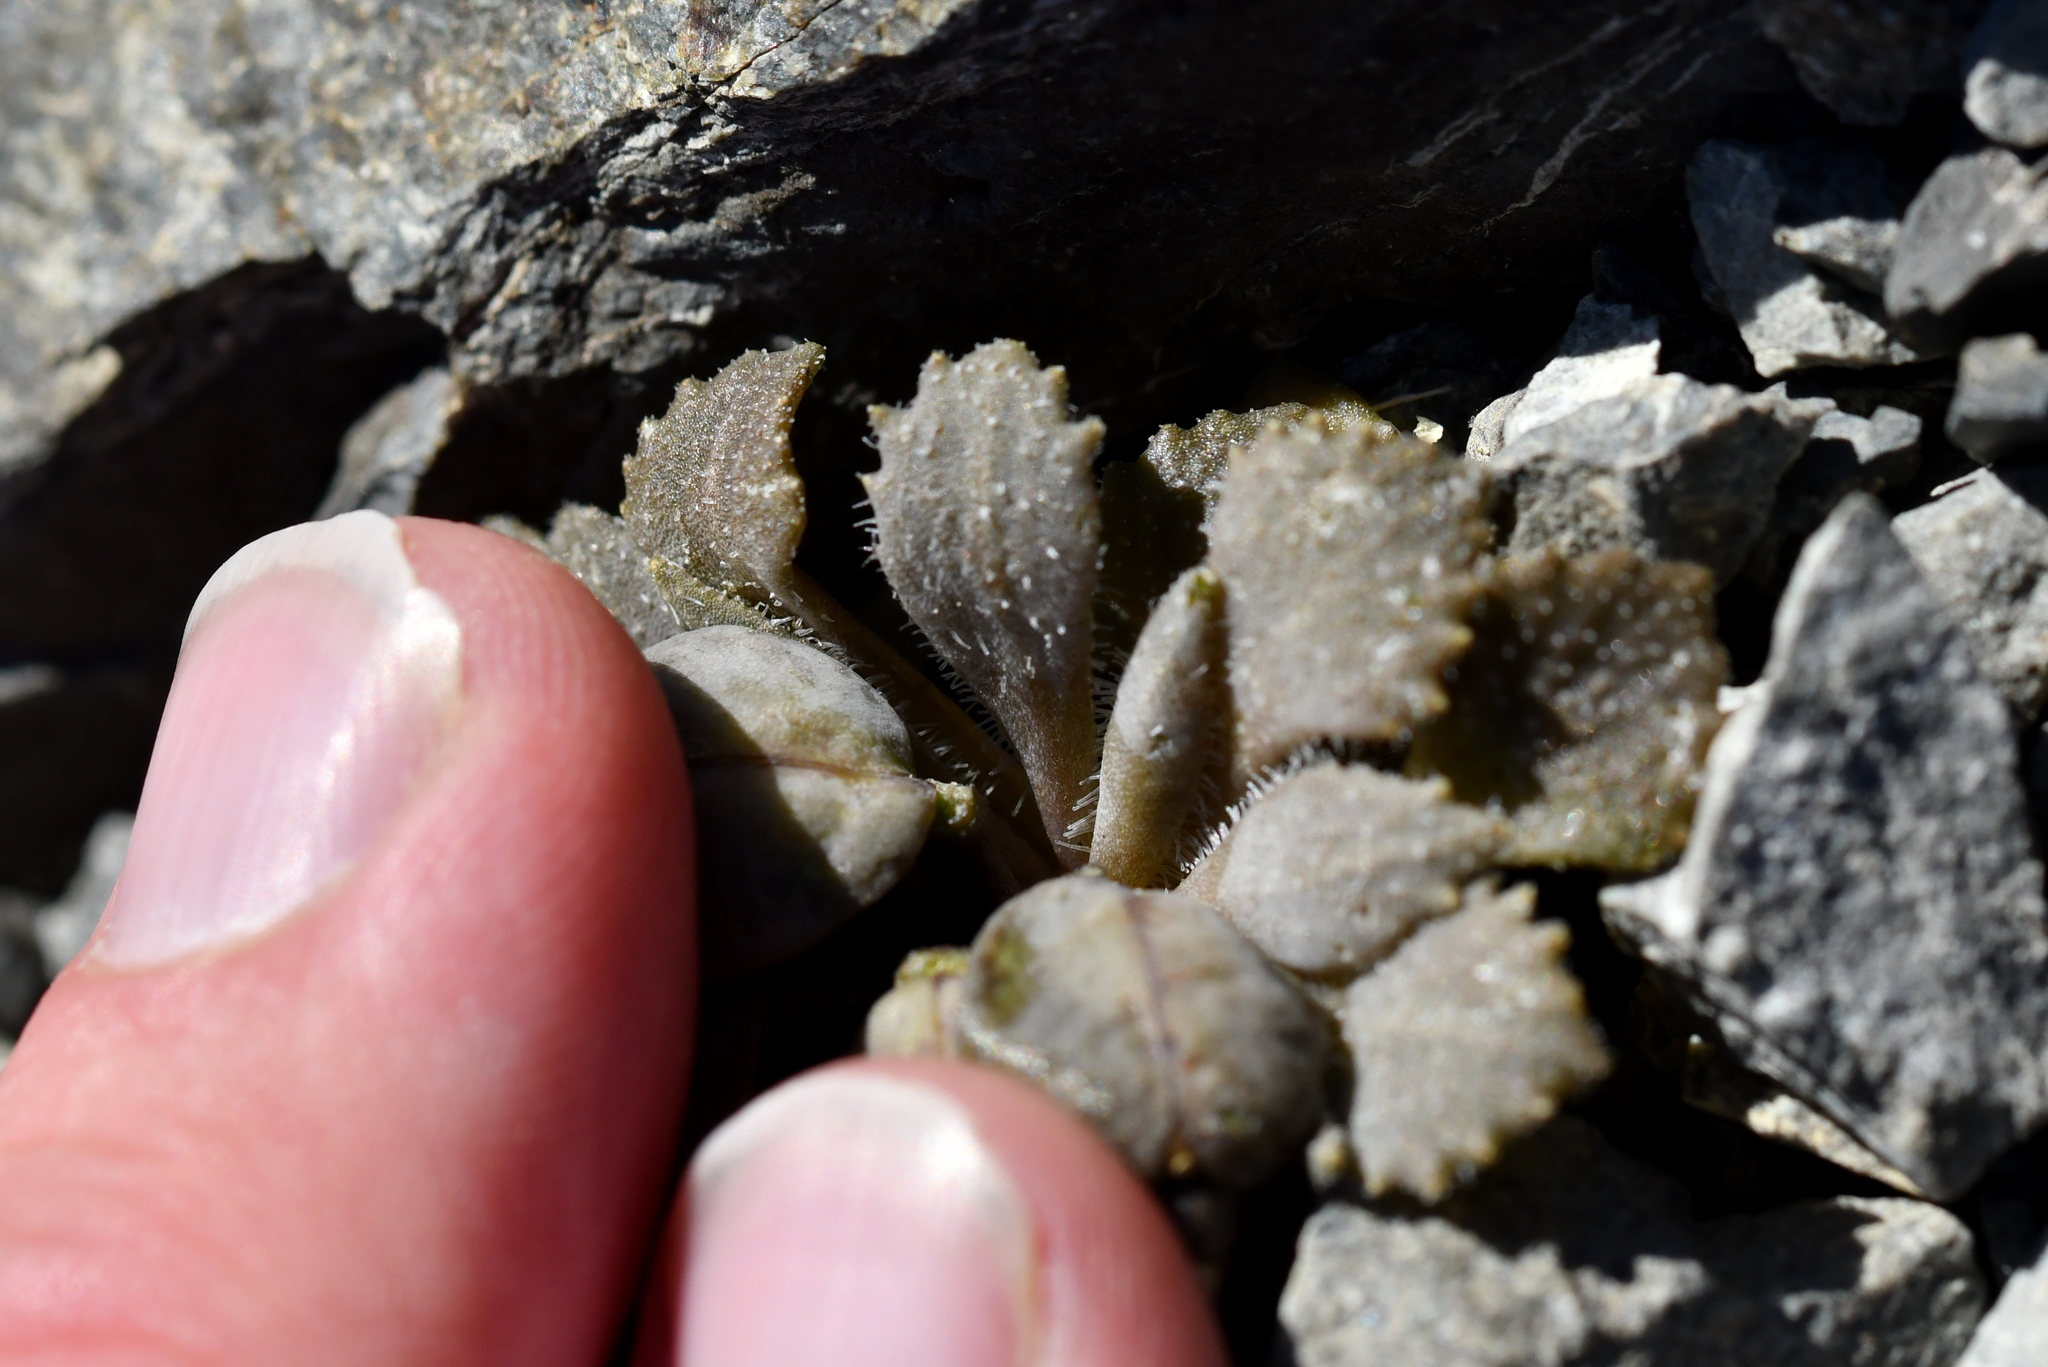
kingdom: Plantae
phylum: Tracheophyta
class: Magnoliopsida
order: Brassicales
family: Brassicaceae
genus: Notothlaspi
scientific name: Notothlaspi rosulatum
